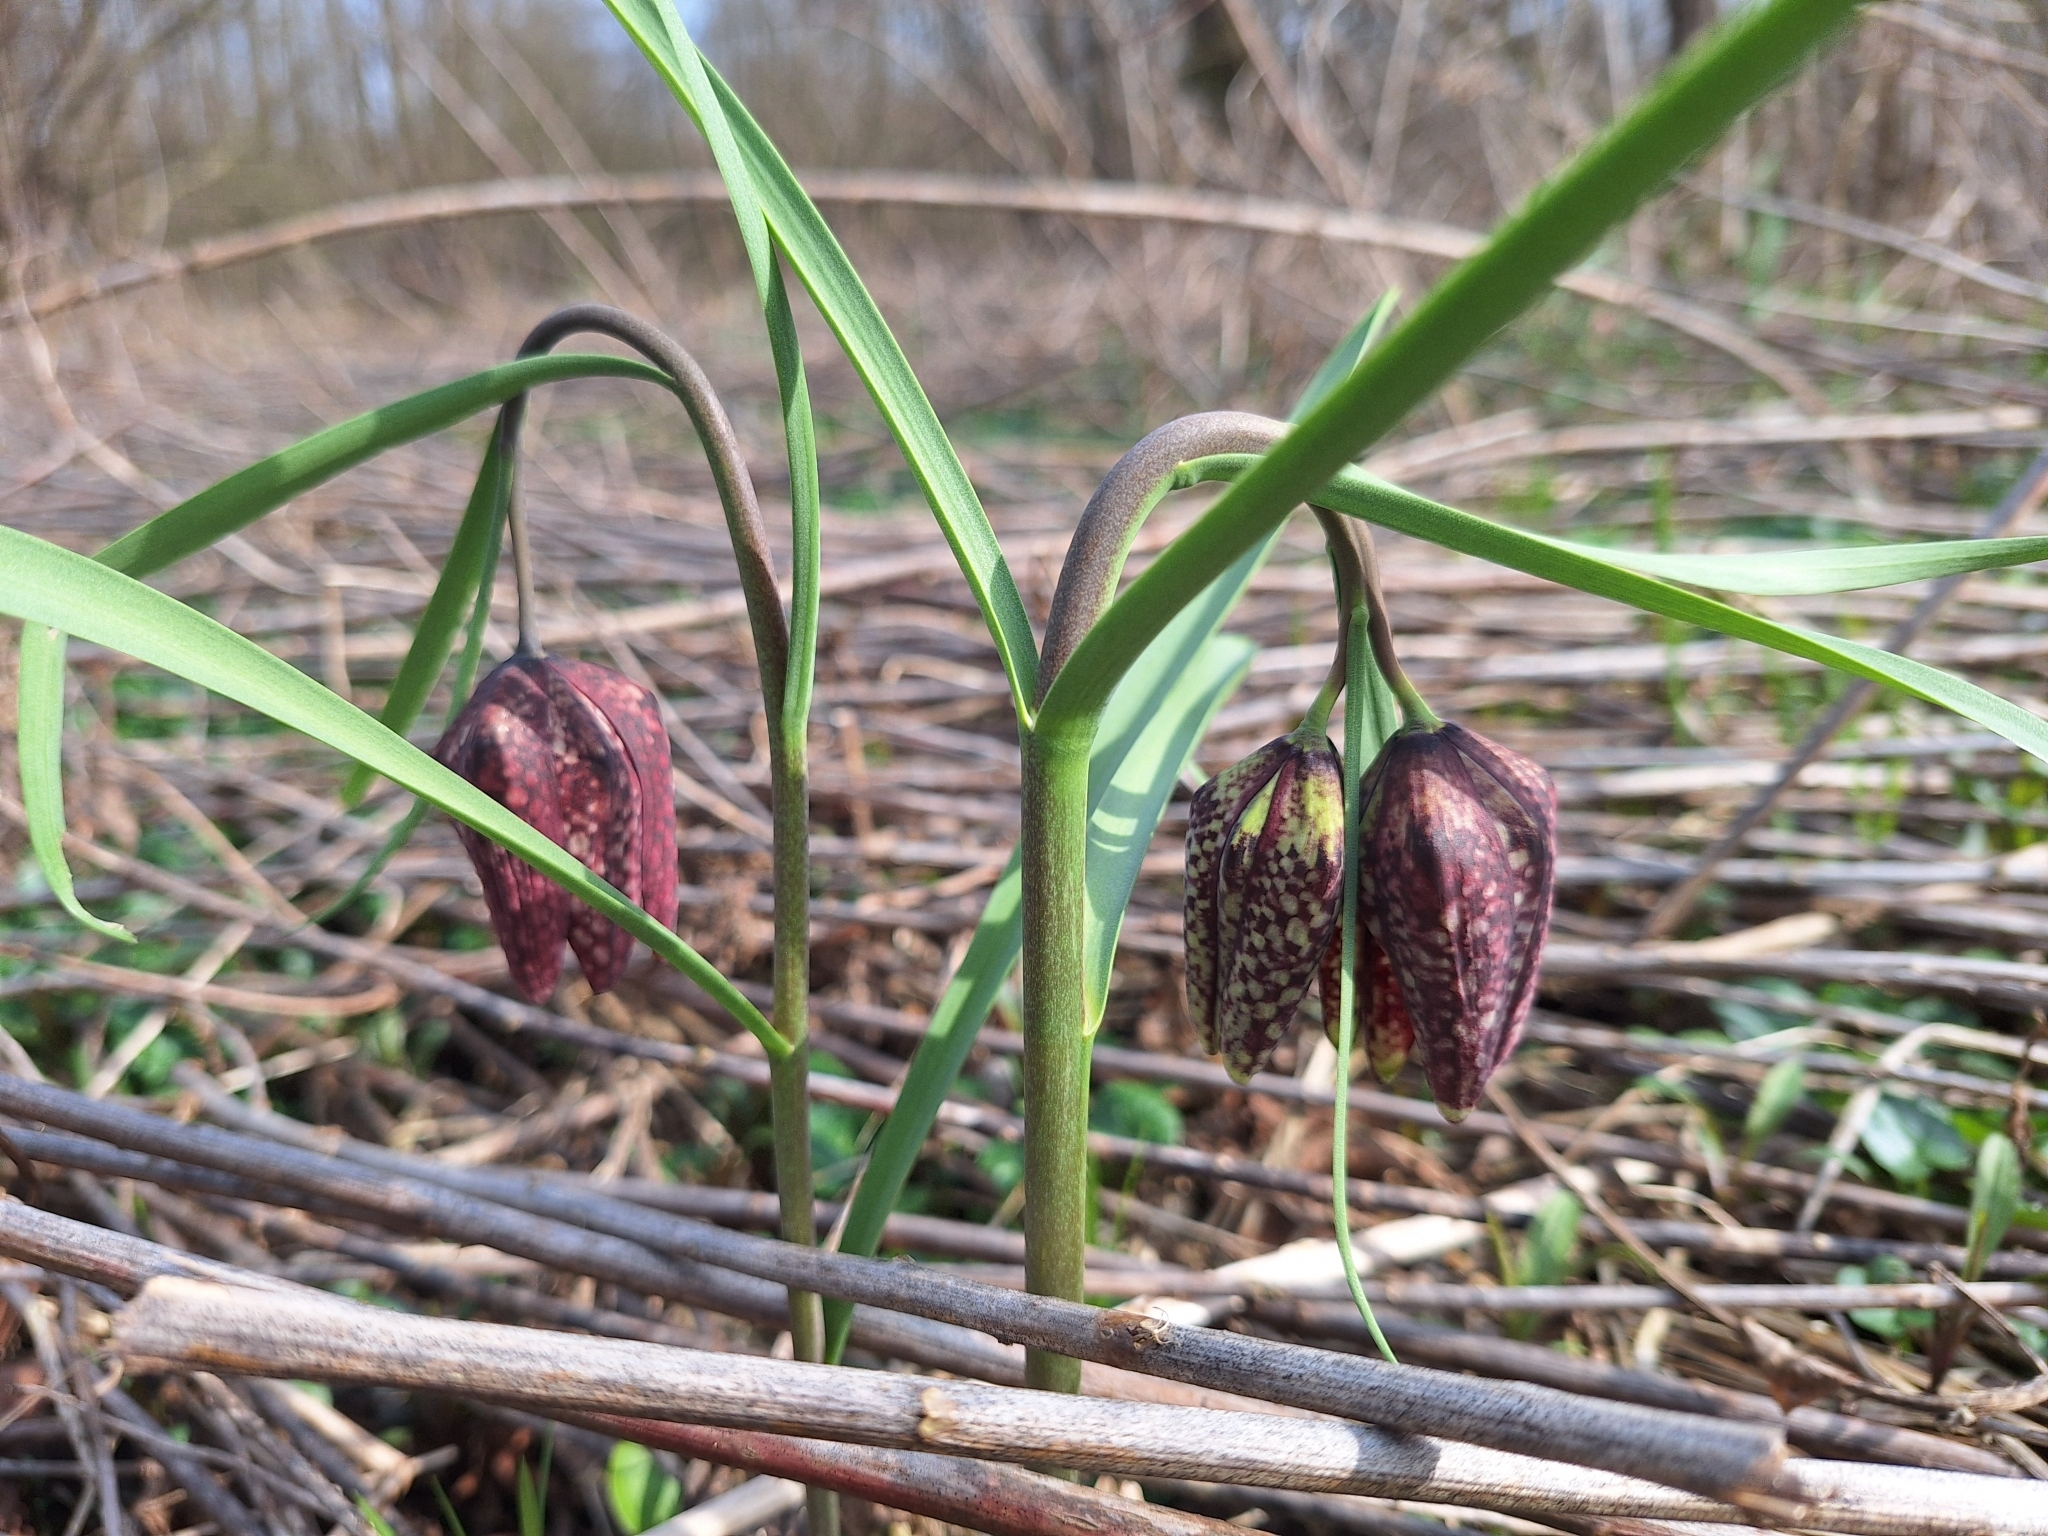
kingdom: Plantae
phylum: Tracheophyta
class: Liliopsida
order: Liliales
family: Liliaceae
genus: Fritillaria
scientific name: Fritillaria meleagris
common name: Fritillary
